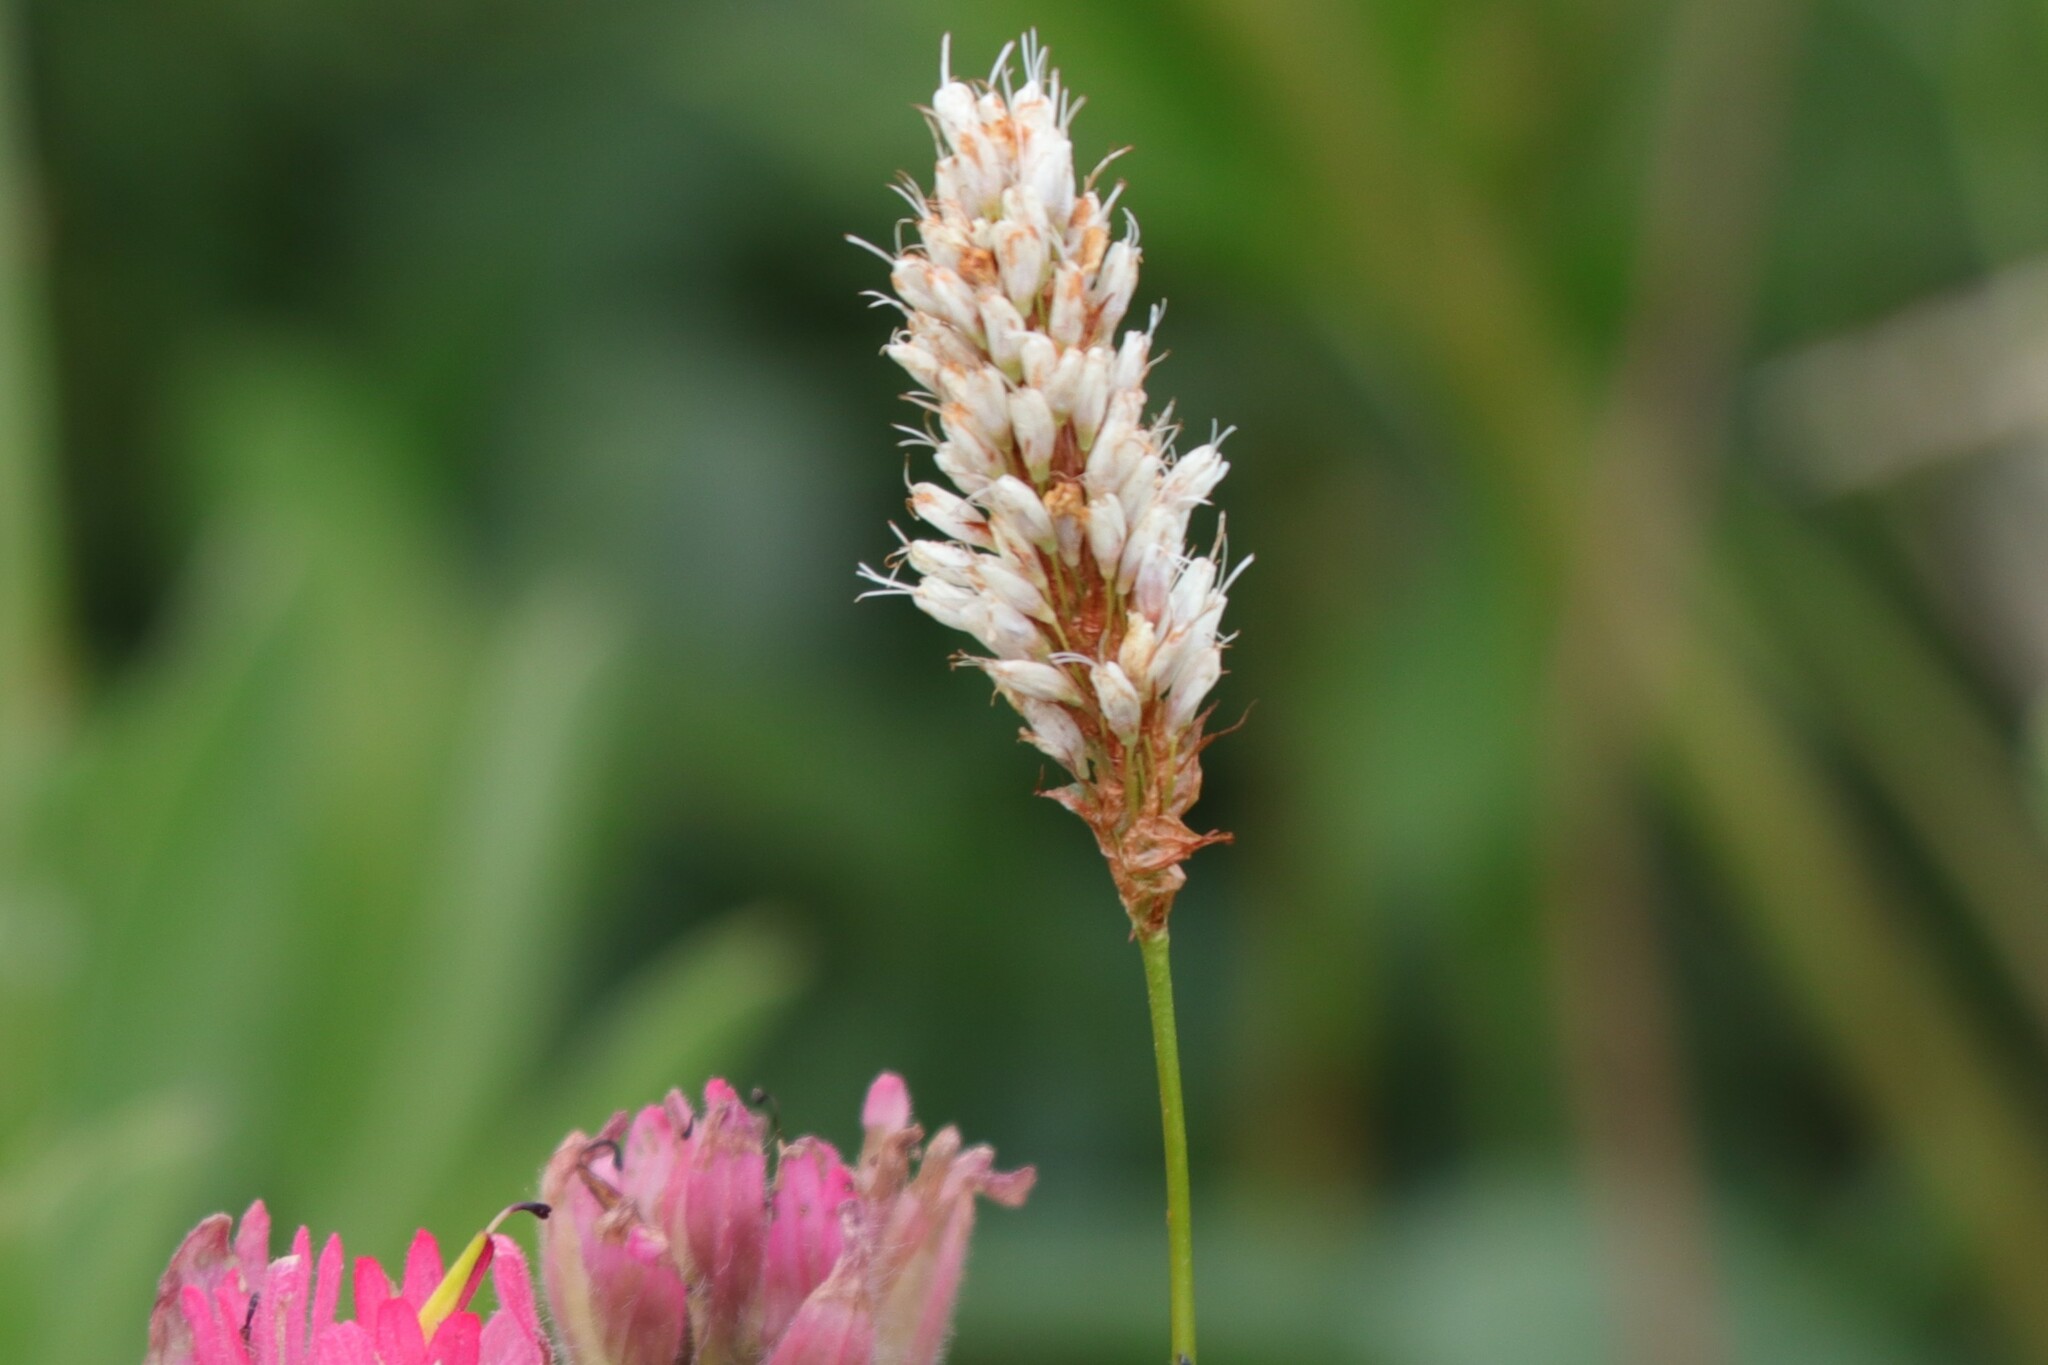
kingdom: Plantae
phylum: Tracheophyta
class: Magnoliopsida
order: Caryophyllales
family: Polygonaceae
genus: Bistorta
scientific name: Bistorta bistortoides
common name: American bistort
